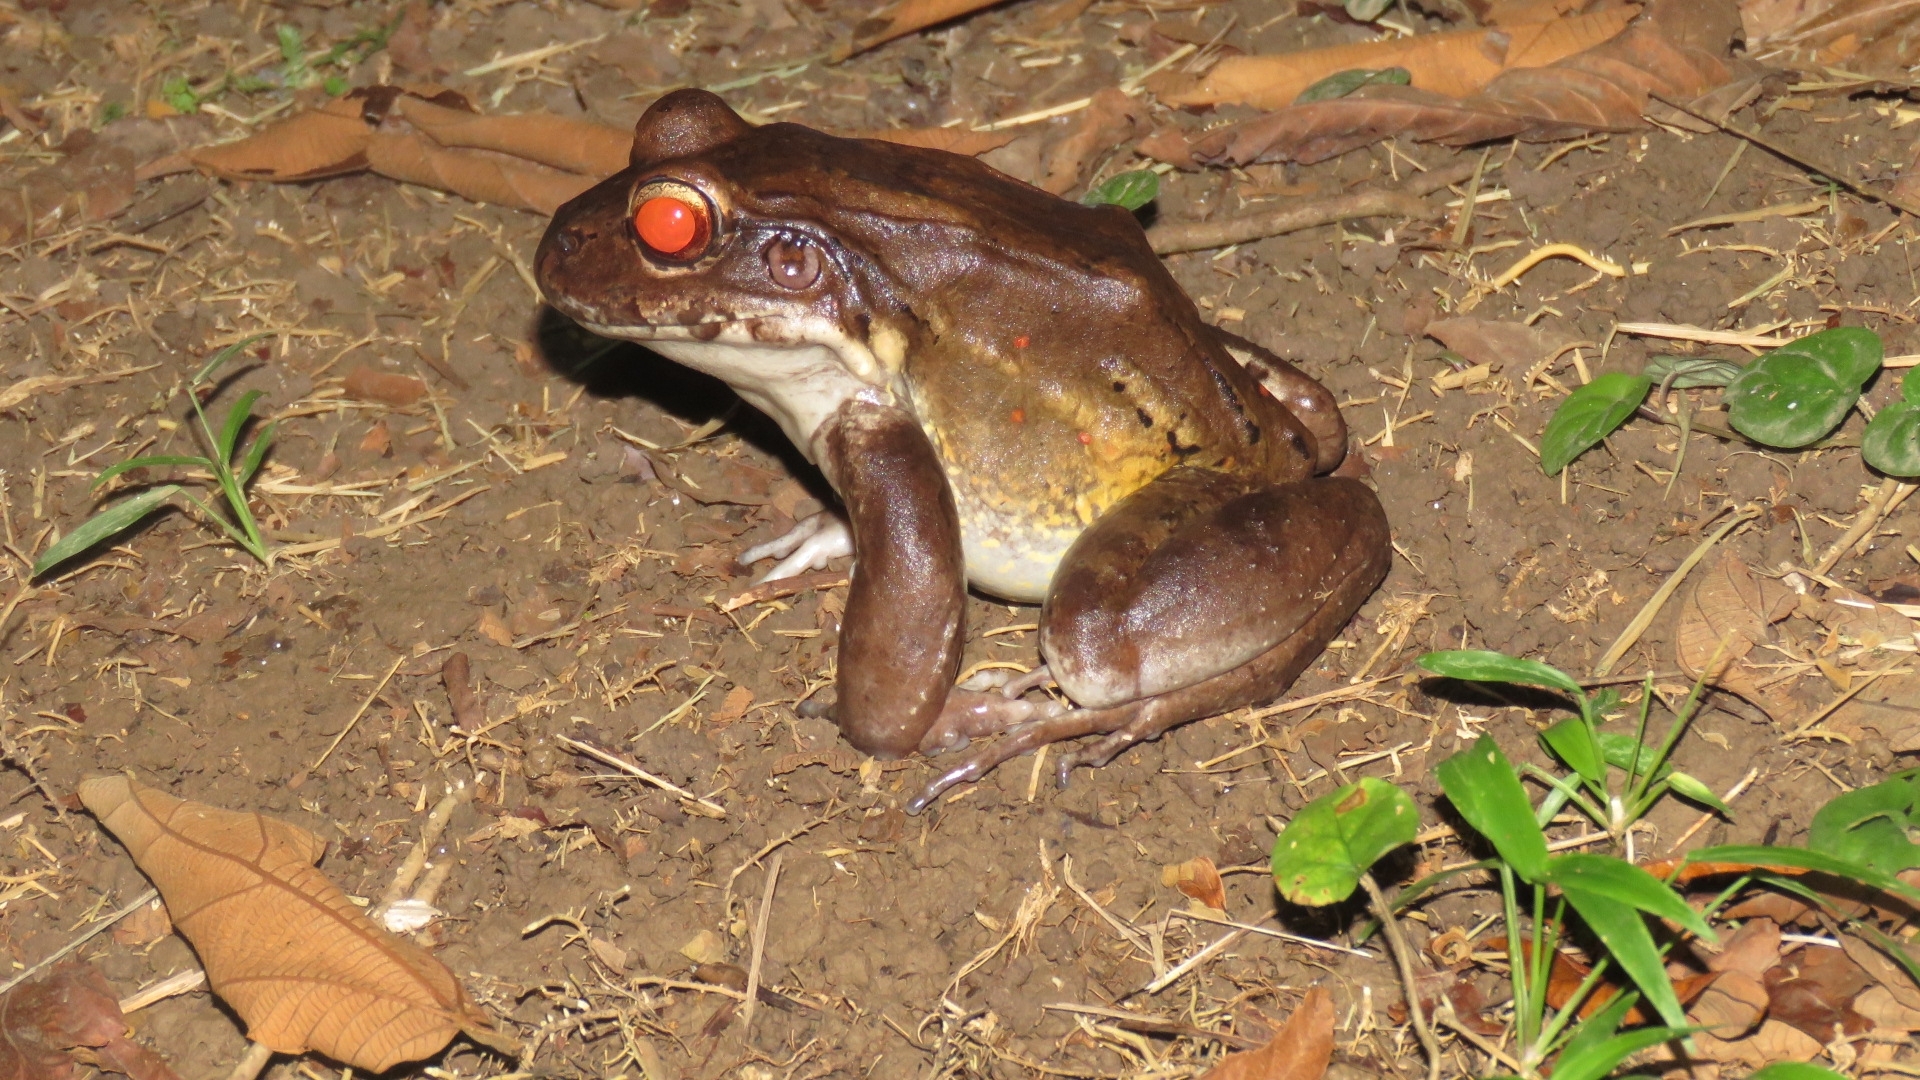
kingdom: Animalia
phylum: Chordata
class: Amphibia
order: Anura
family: Leptodactylidae
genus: Leptodactylus
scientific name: Leptodactylus savagei
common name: Savage's thin-toed frog
